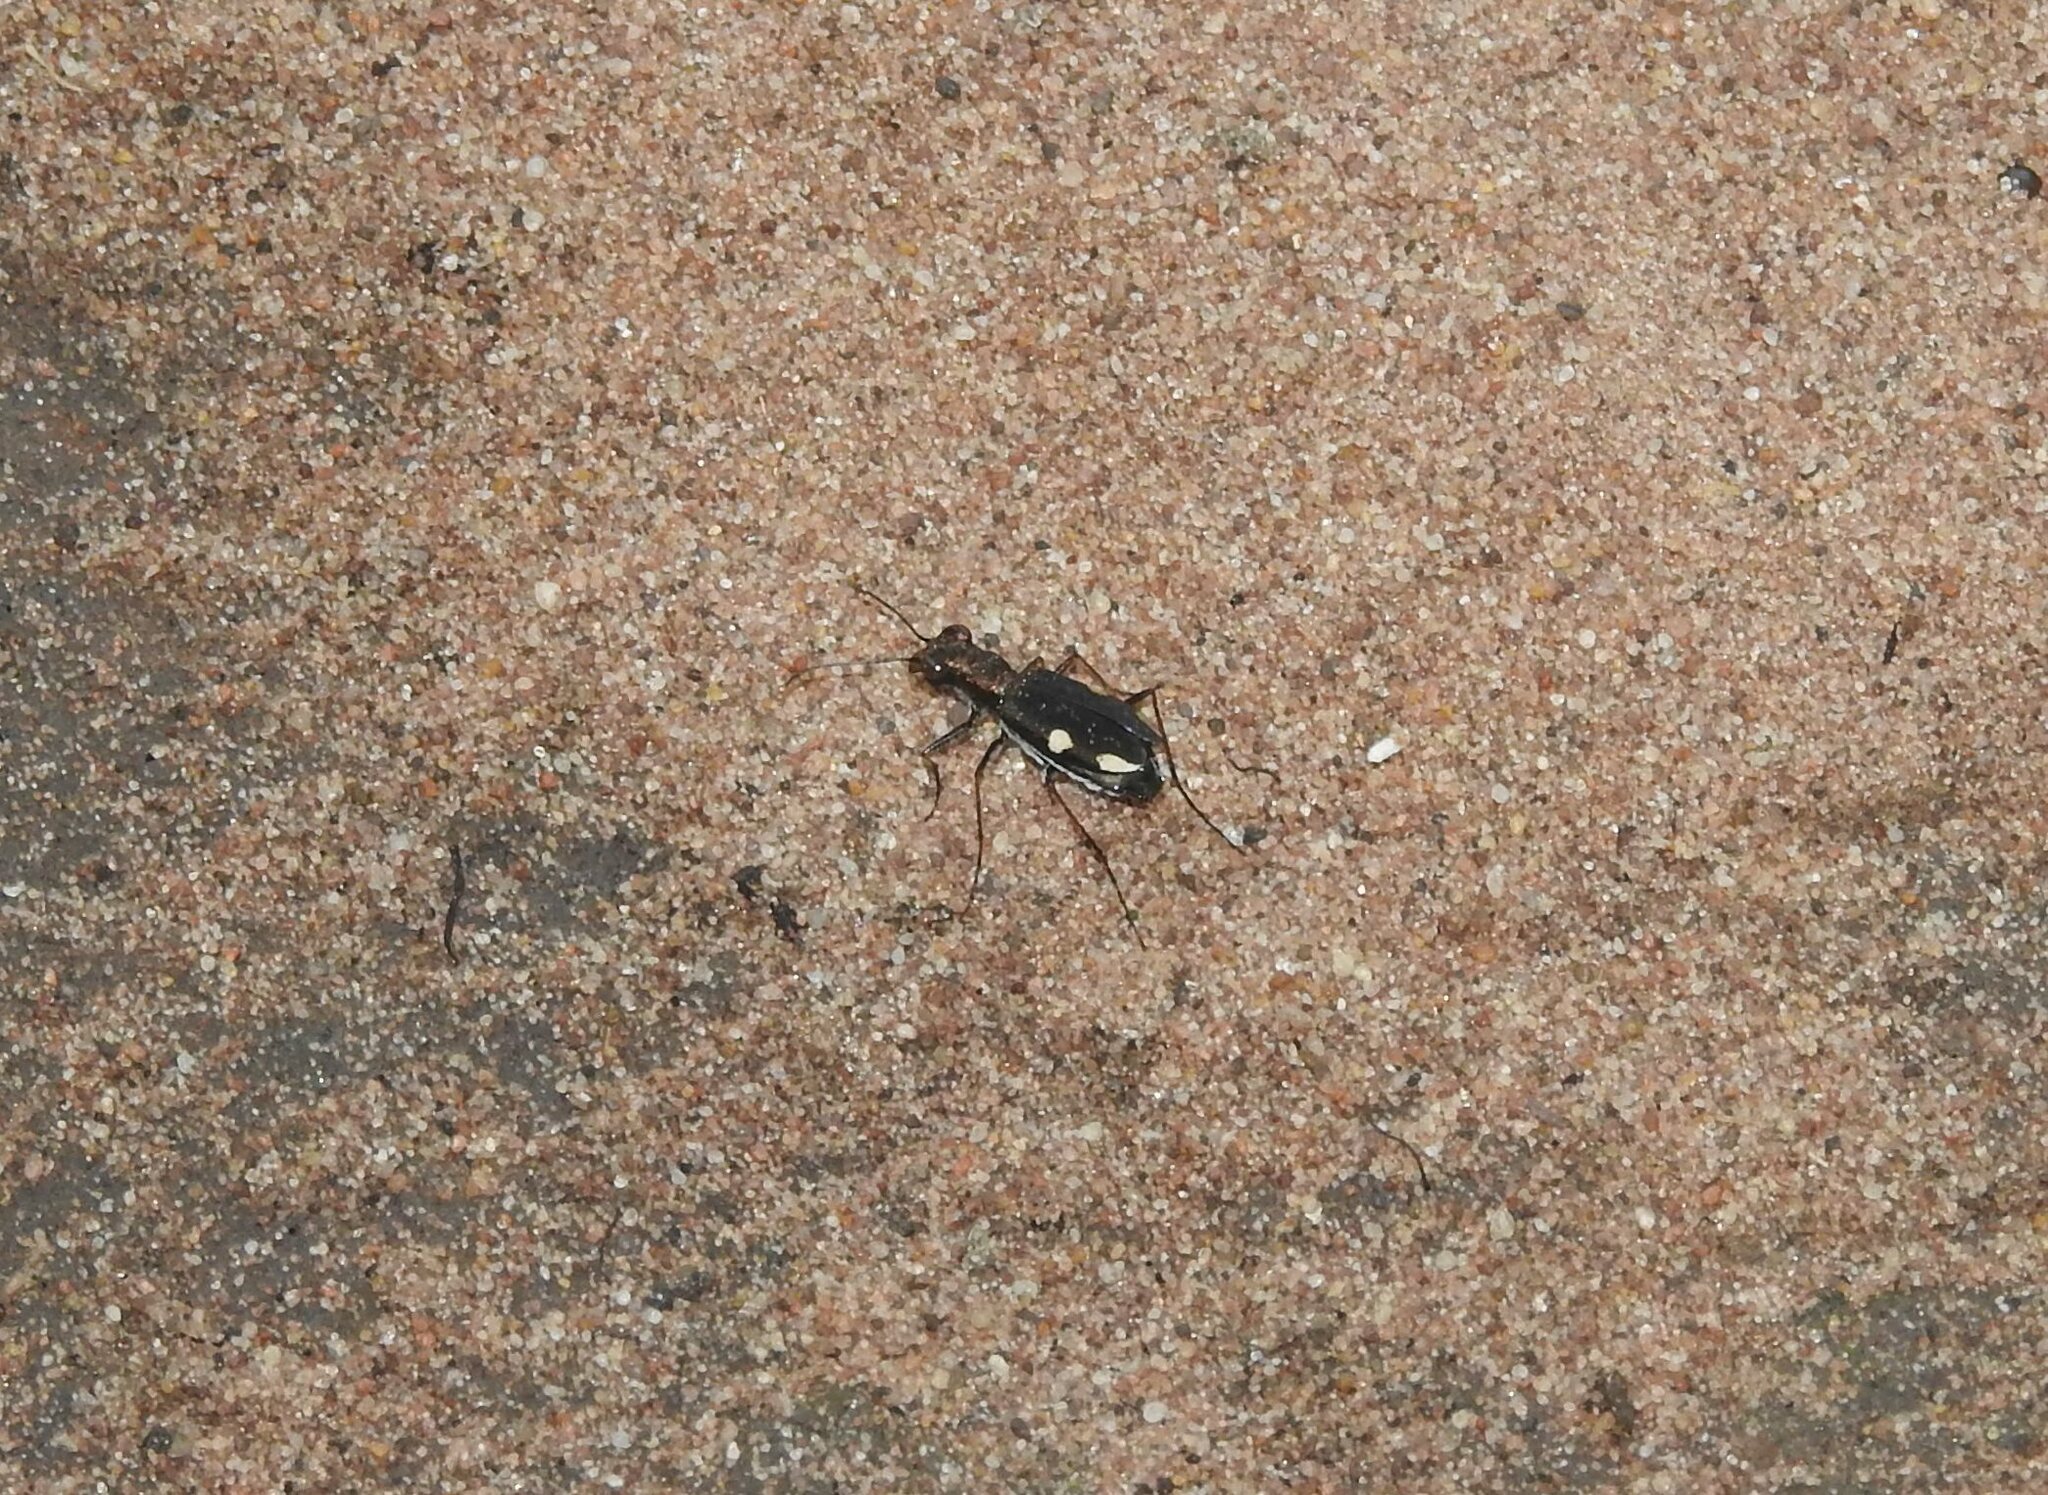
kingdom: Animalia
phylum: Arthropoda
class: Insecta
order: Coleoptera
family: Carabidae
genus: Jansenia
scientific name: Jansenia westermanni
